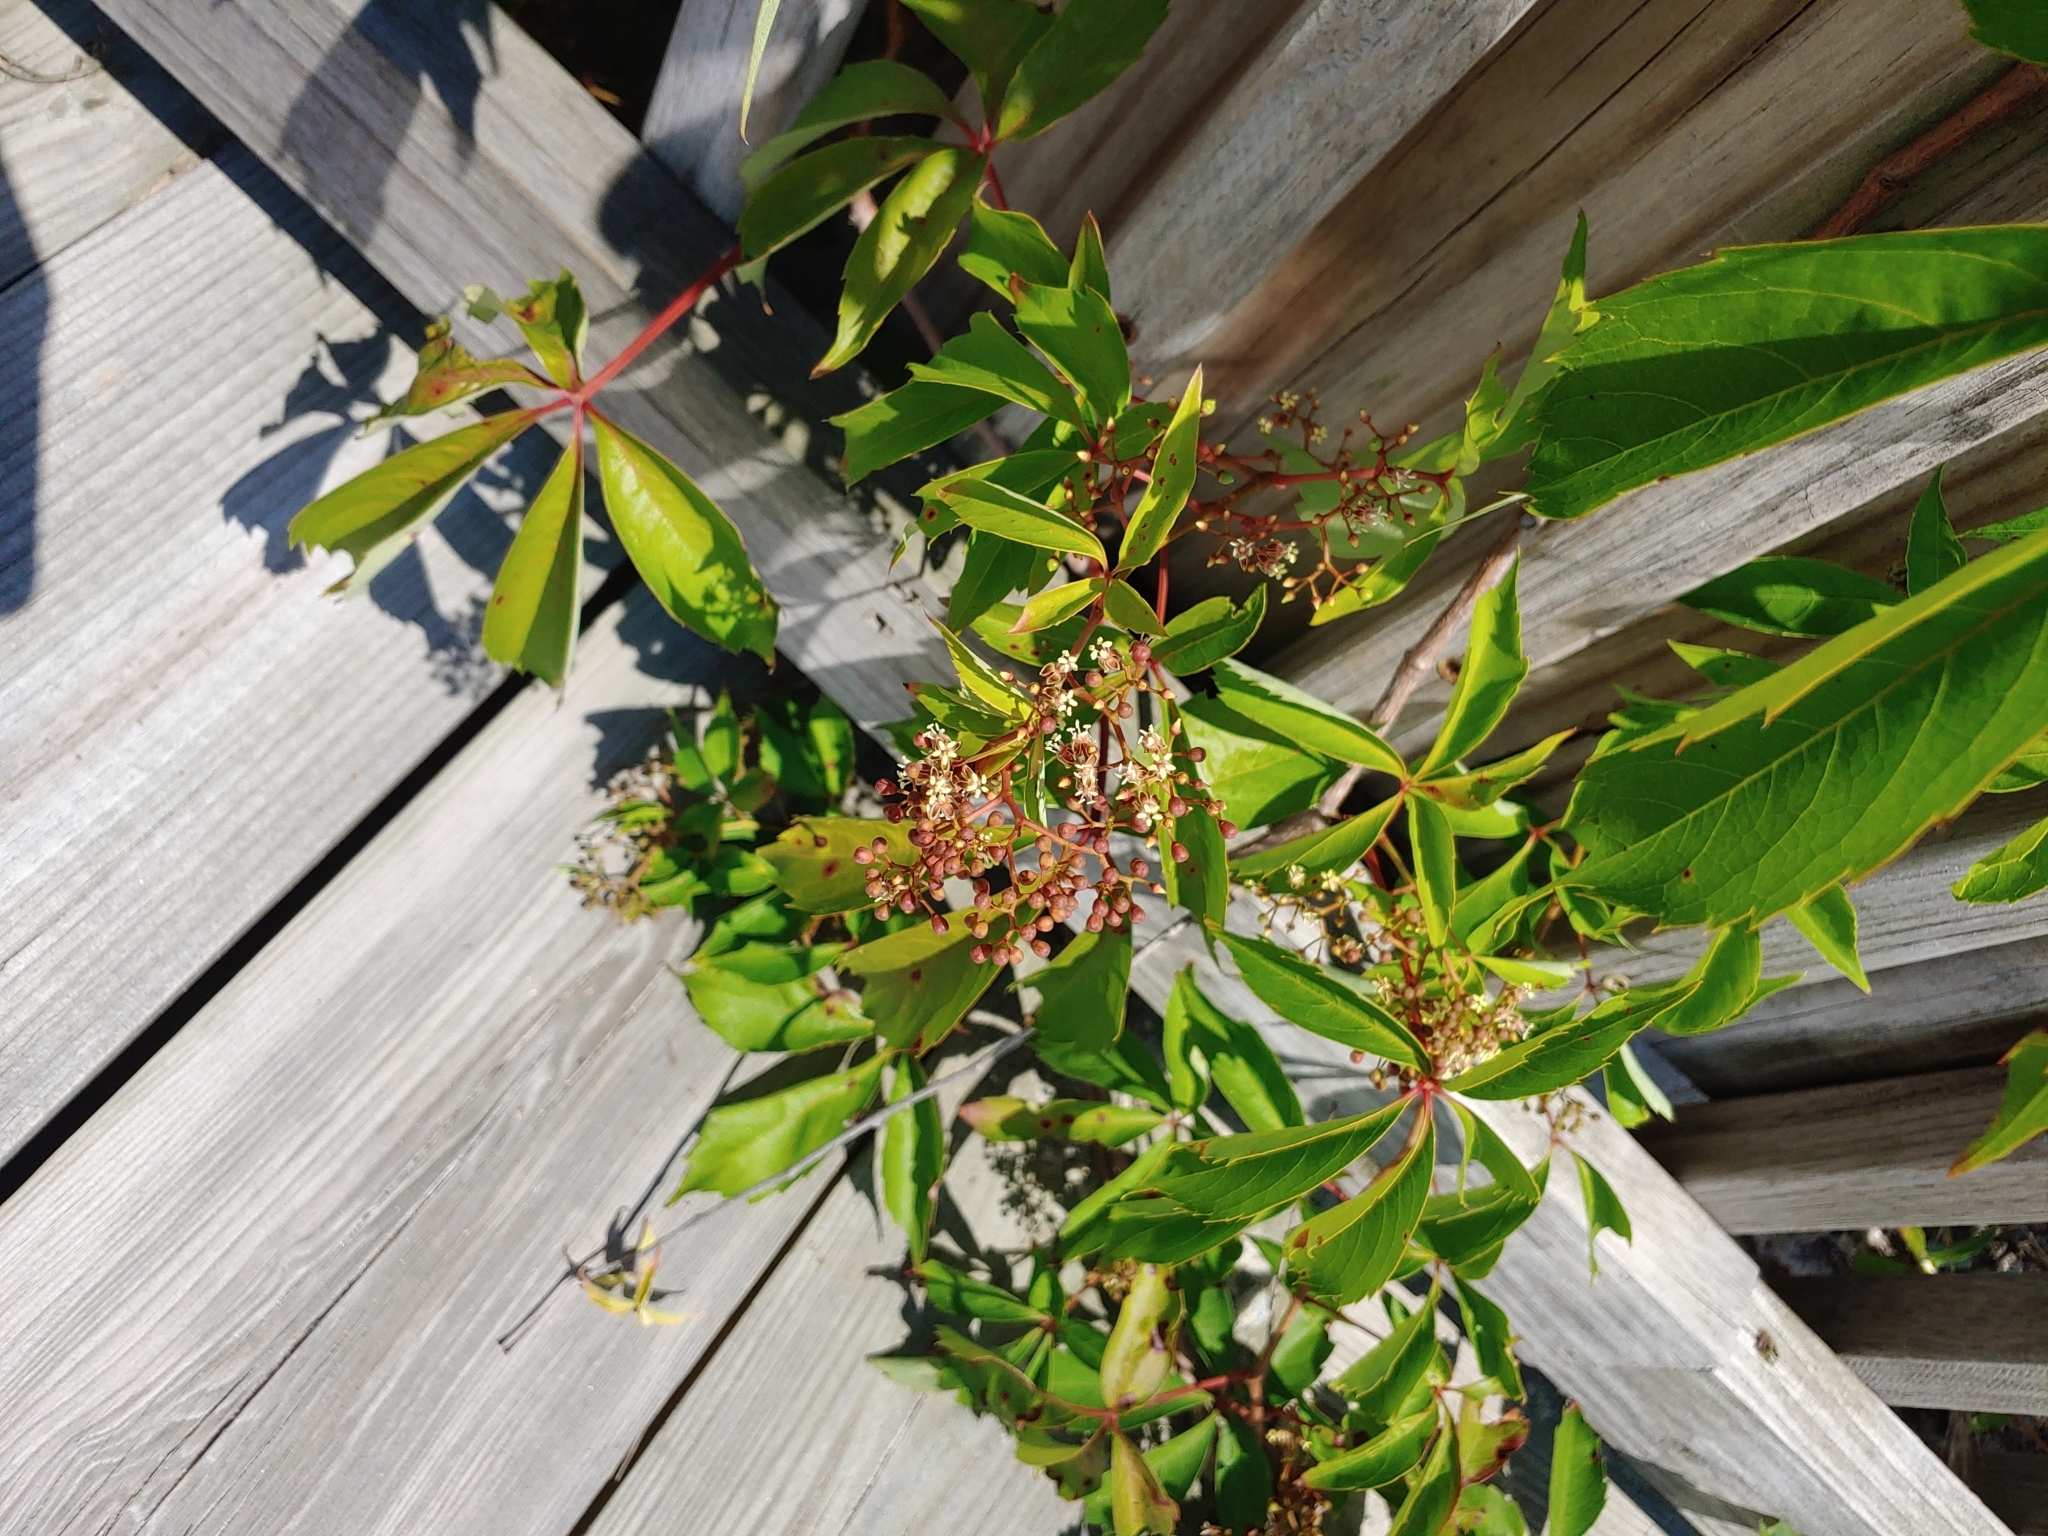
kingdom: Plantae
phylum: Tracheophyta
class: Magnoliopsida
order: Vitales
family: Vitaceae
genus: Parthenocissus
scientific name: Parthenocissus quinquefolia
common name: Virginia-creeper
